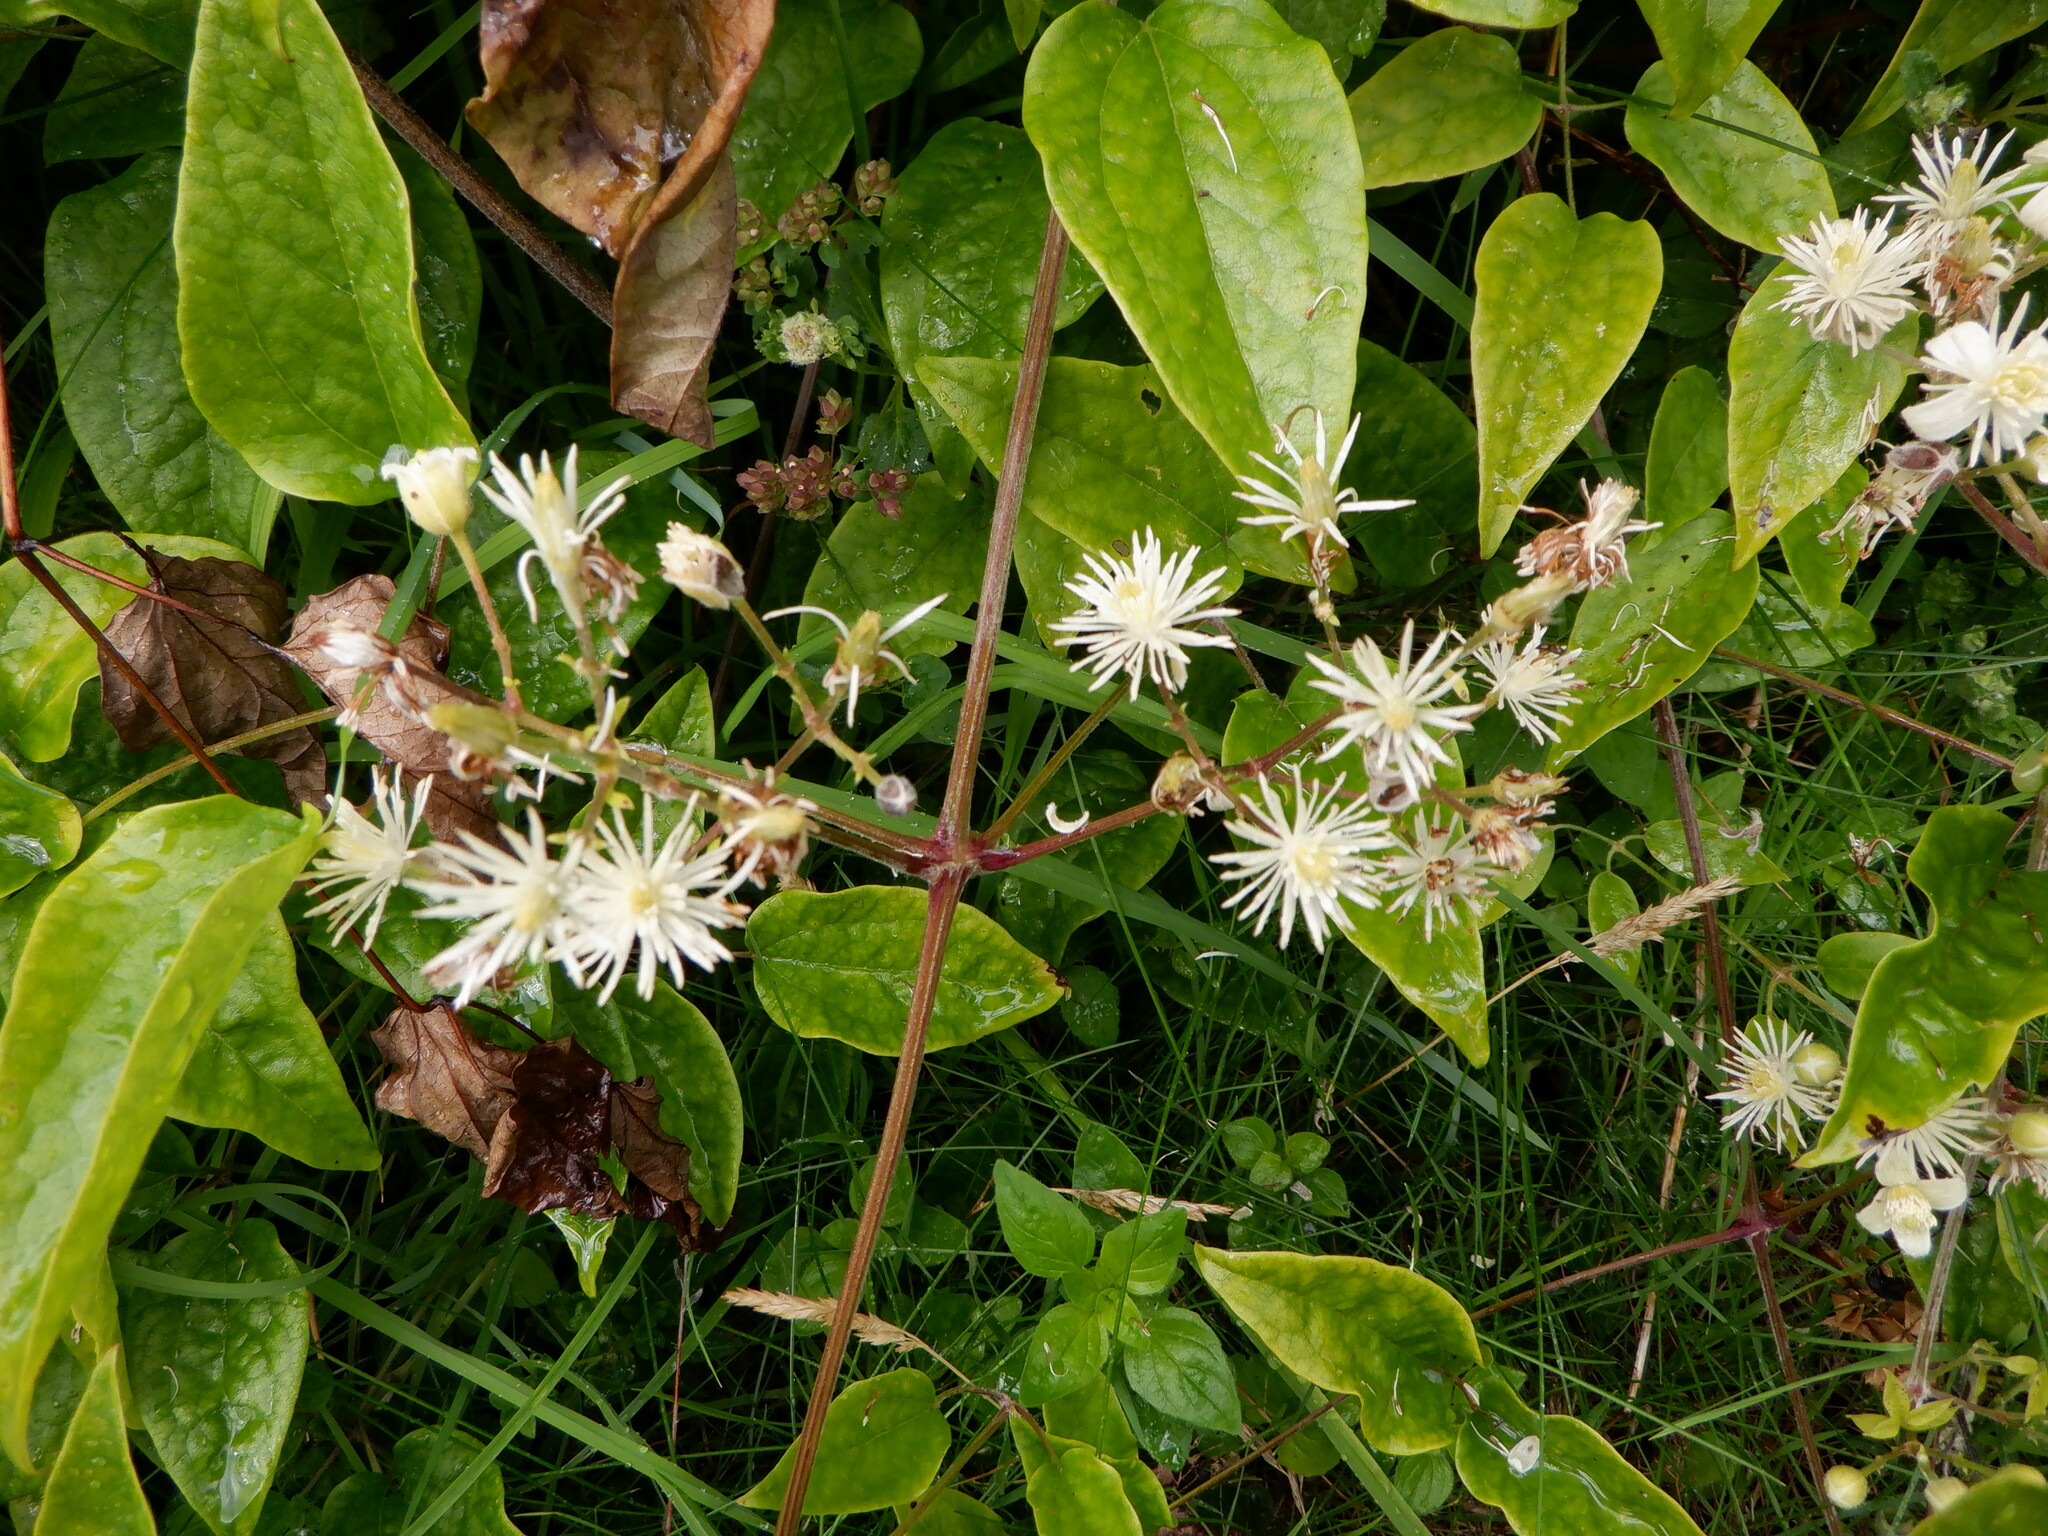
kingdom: Plantae
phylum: Tracheophyta
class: Magnoliopsida
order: Ranunculales
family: Ranunculaceae
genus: Clematis
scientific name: Clematis vitalba
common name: Evergreen clematis
